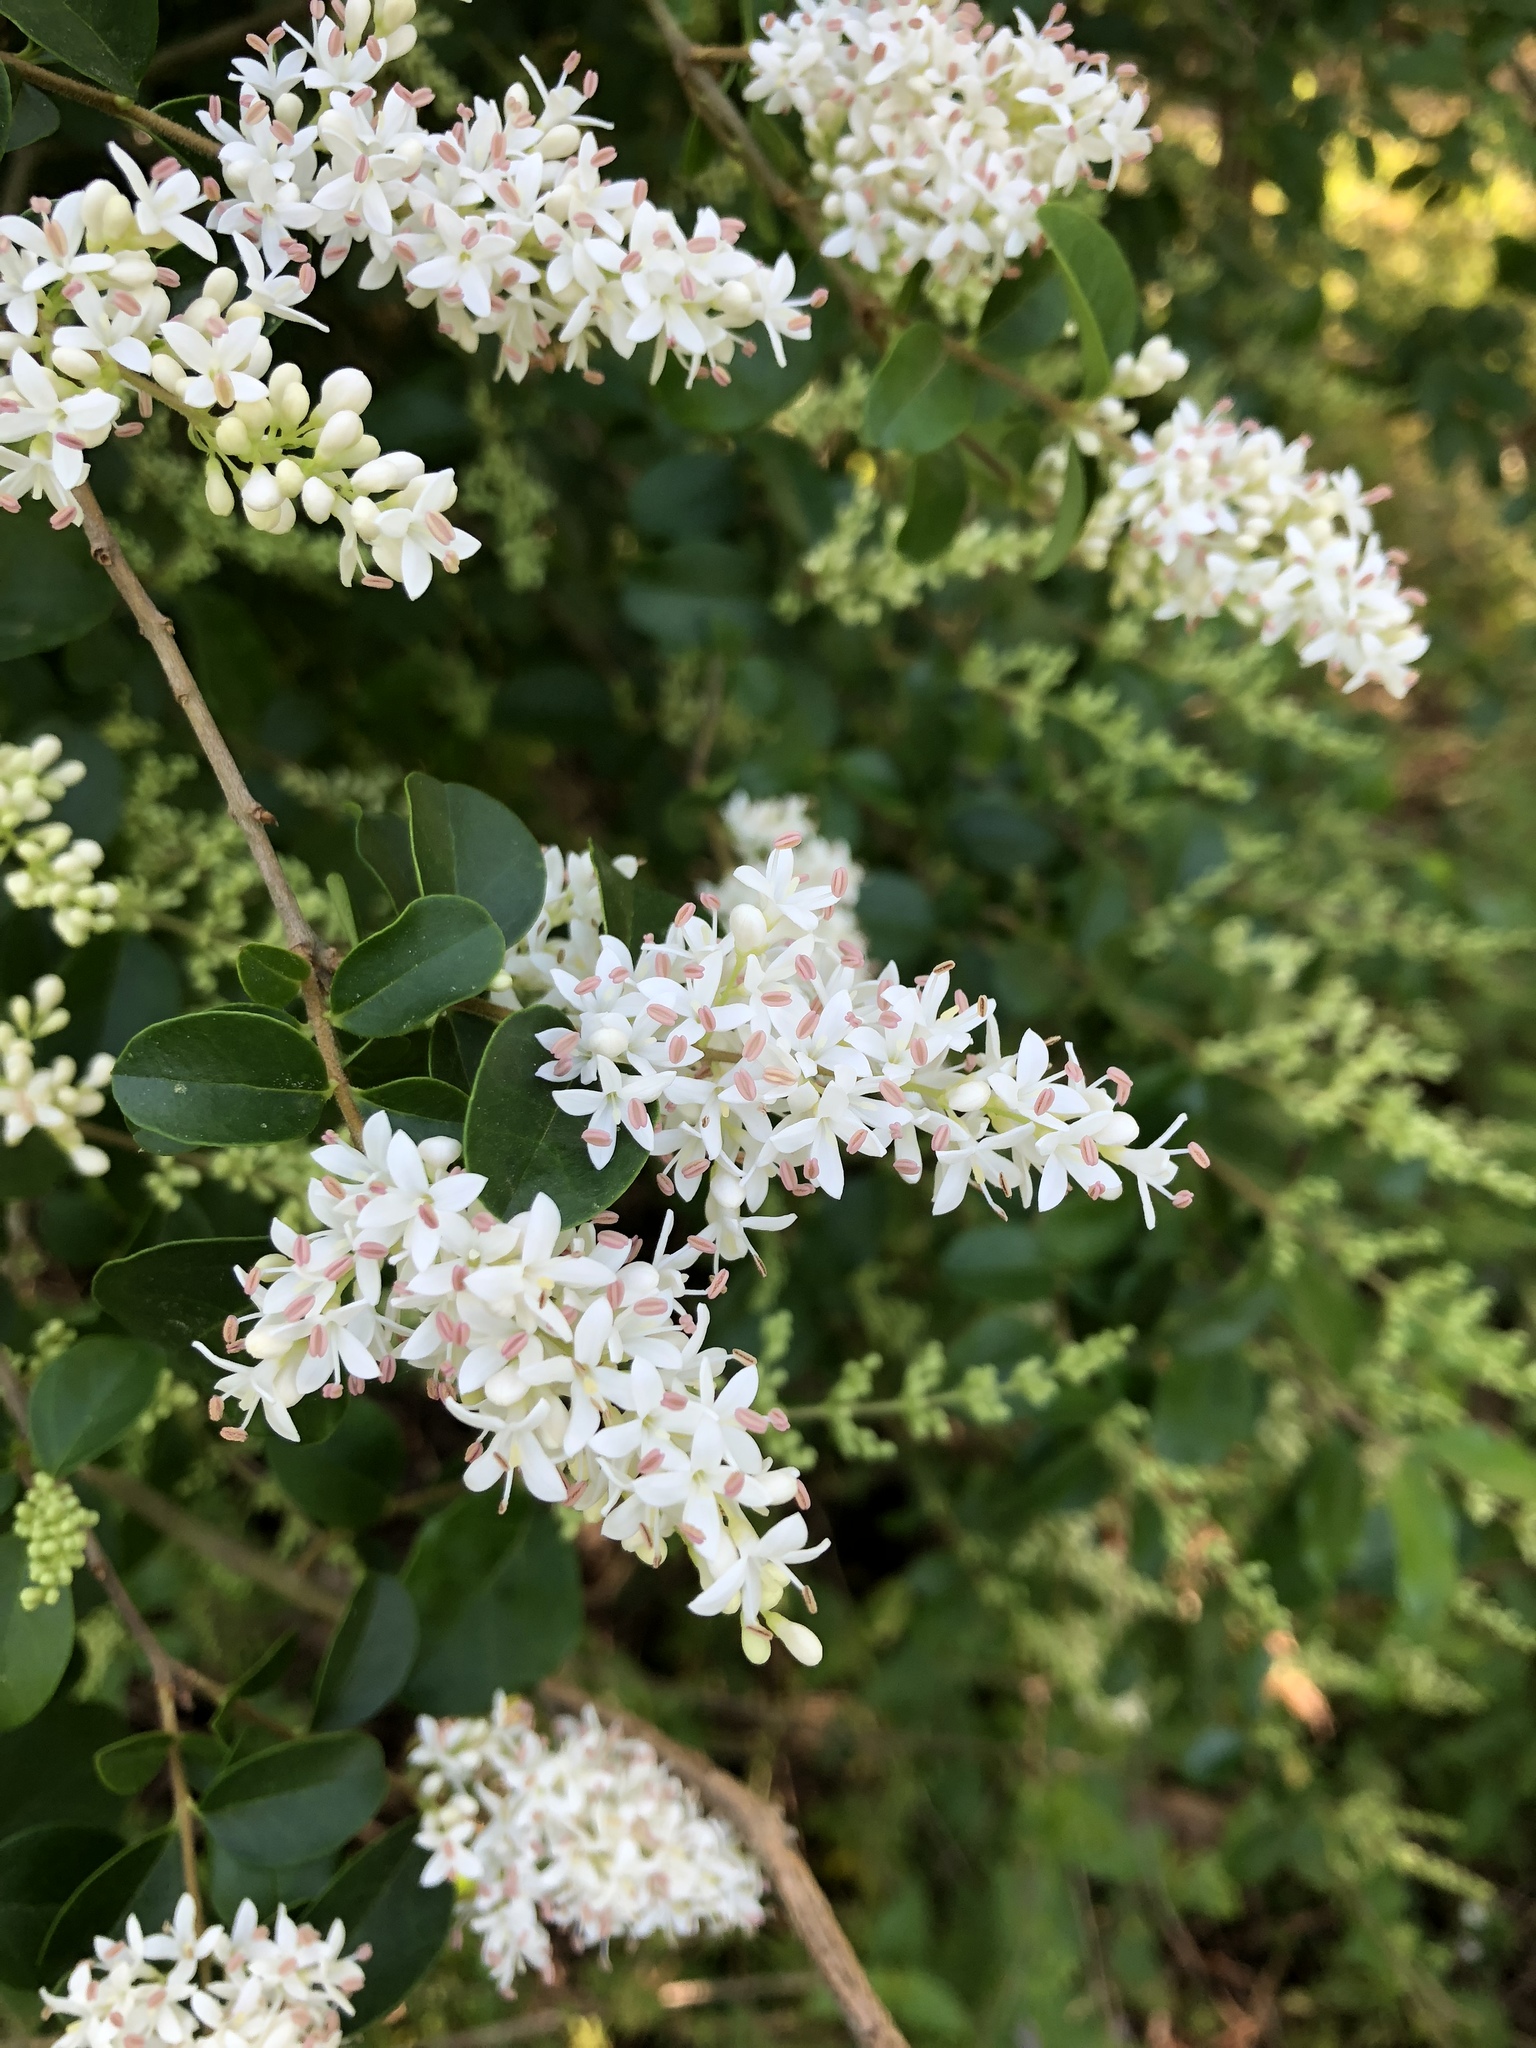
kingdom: Plantae
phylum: Tracheophyta
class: Magnoliopsida
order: Lamiales
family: Oleaceae
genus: Ligustrum
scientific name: Ligustrum sinense
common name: Chinese privet
